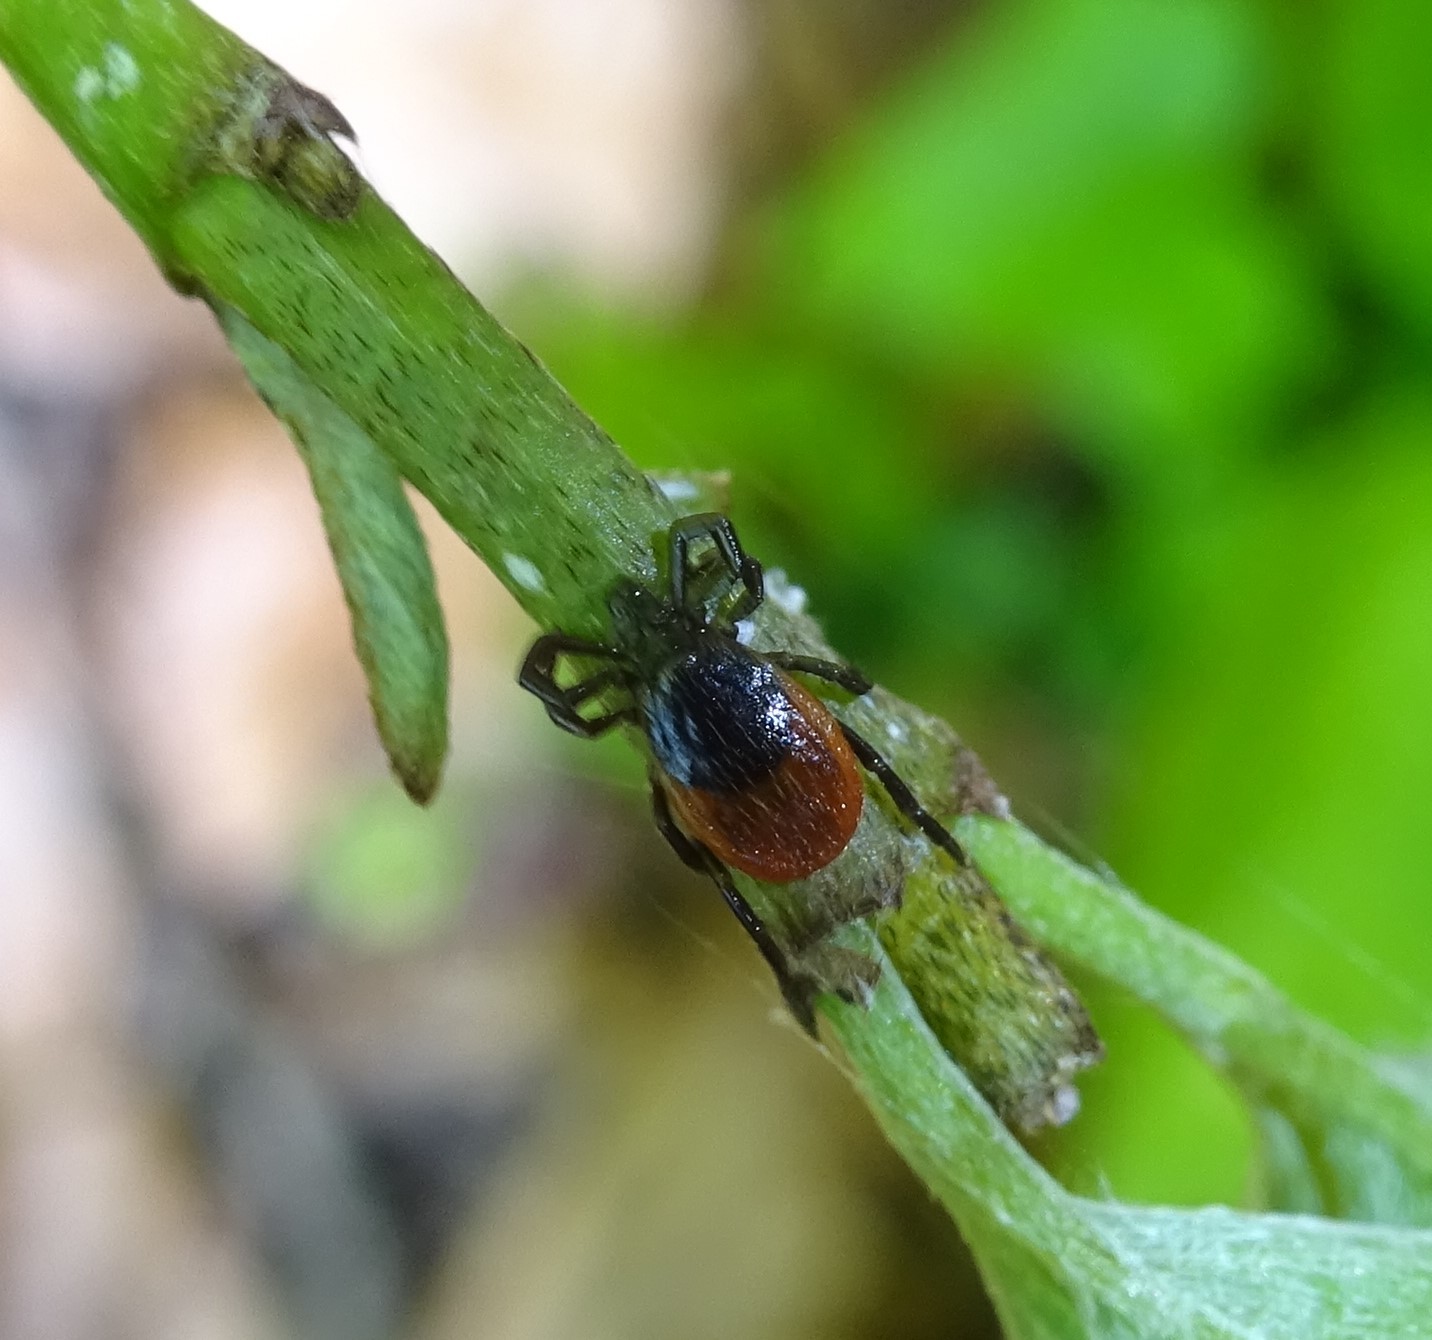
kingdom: Animalia
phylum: Arthropoda
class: Arachnida
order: Ixodida
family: Ixodidae
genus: Ixodes
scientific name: Ixodes ricinus
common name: Castor bean tick
